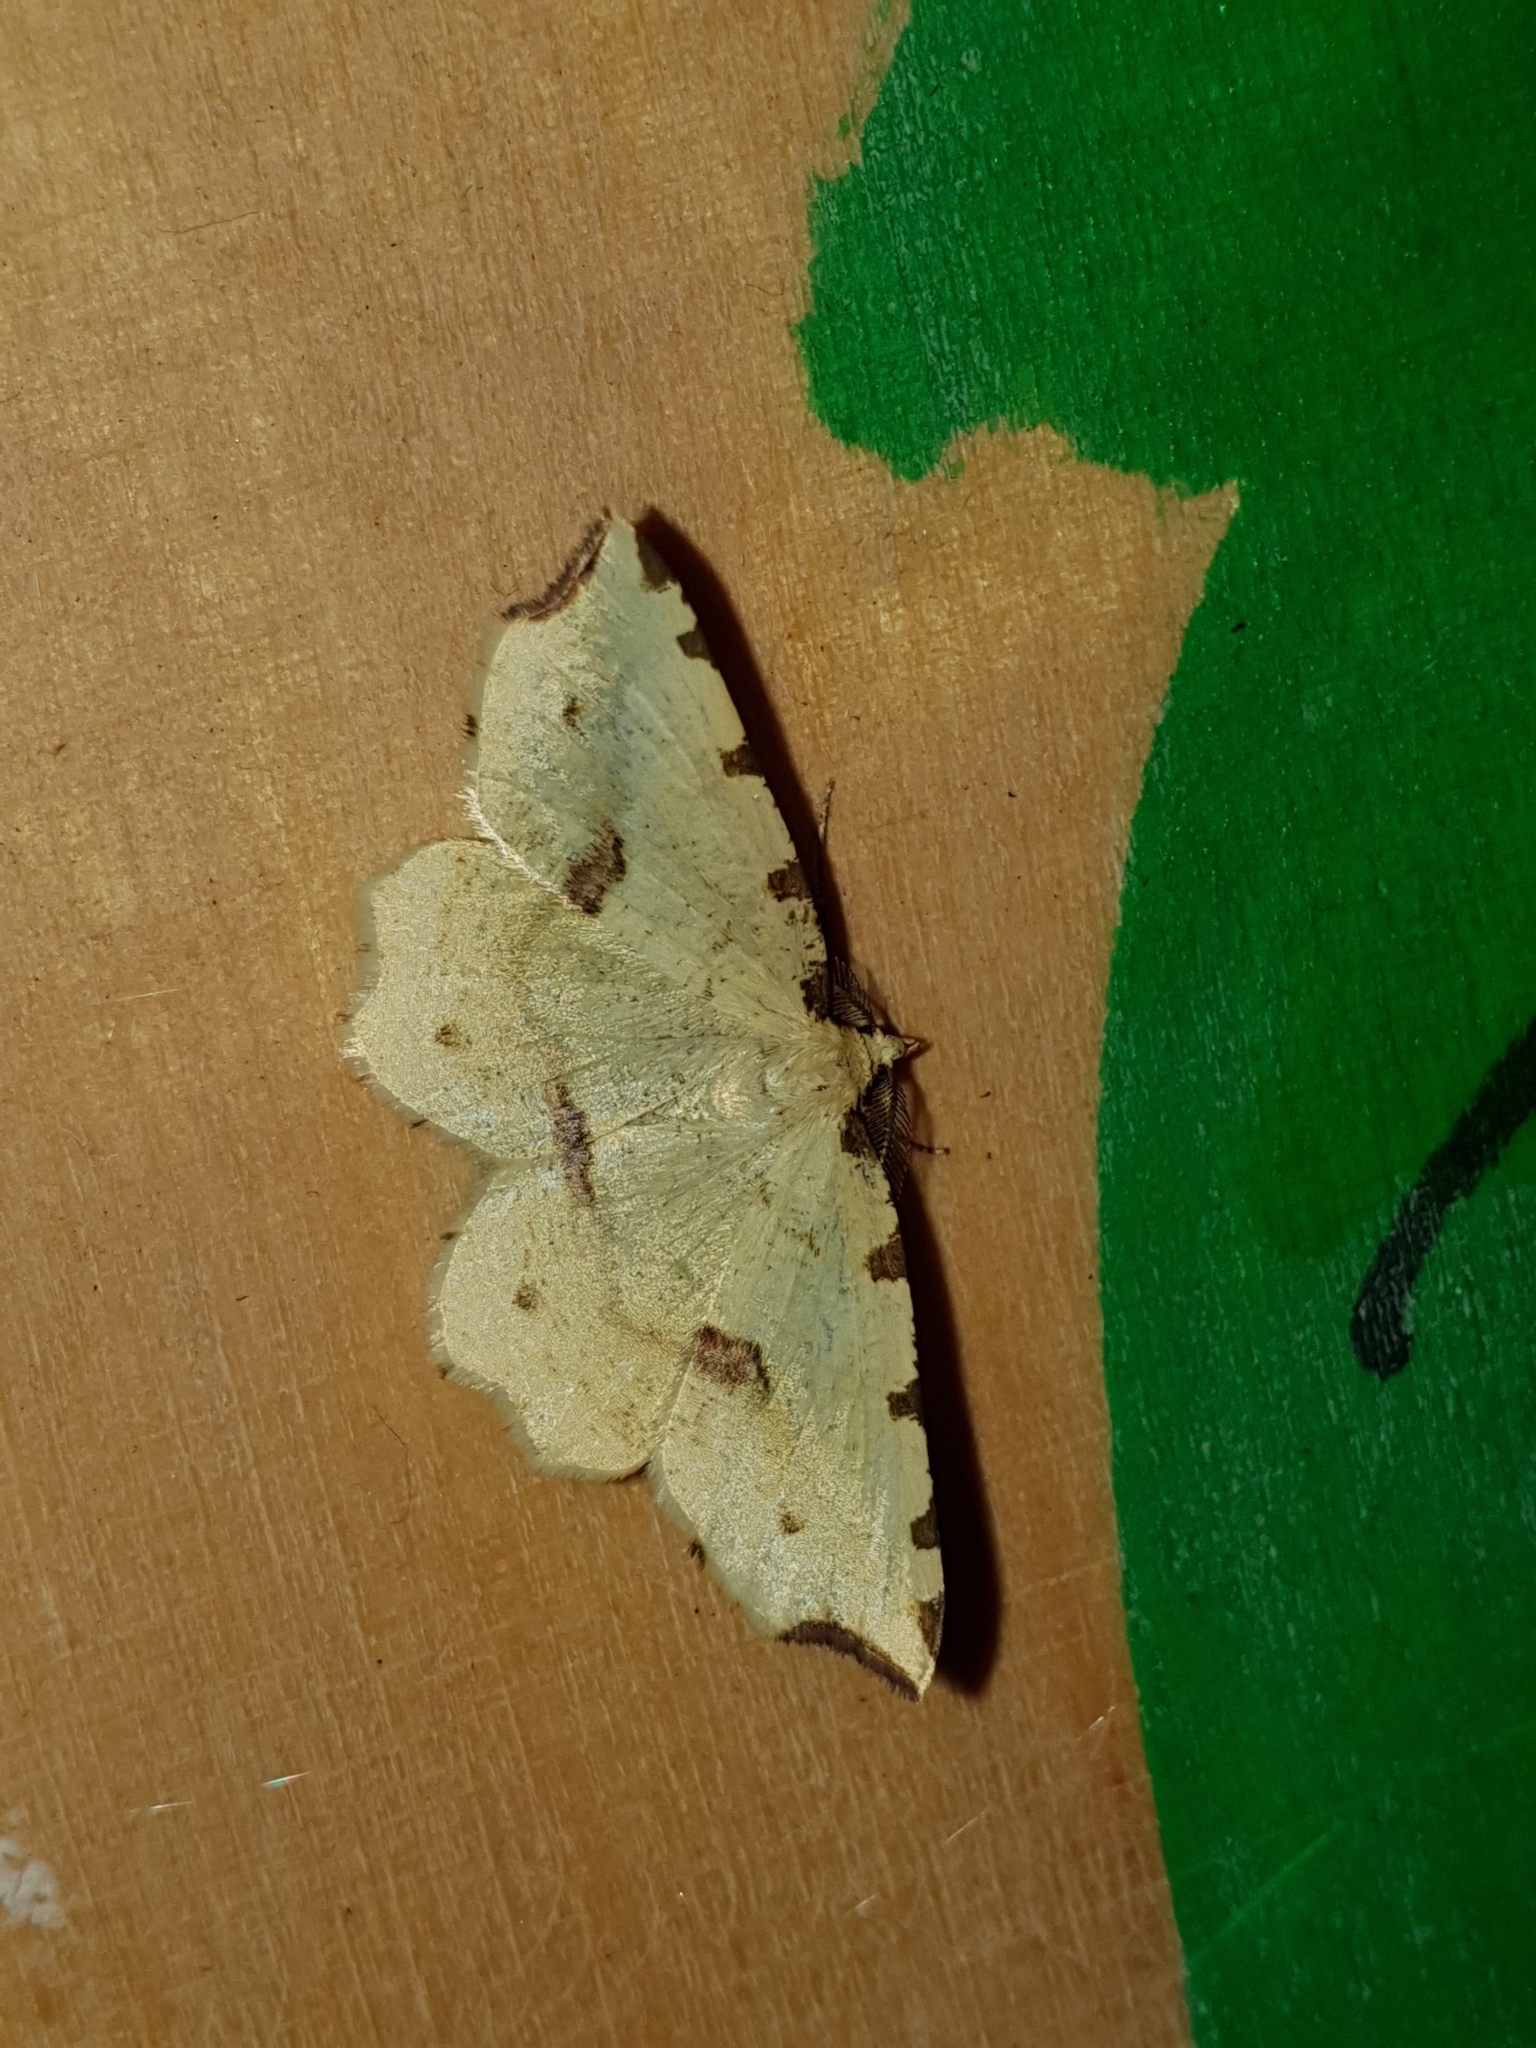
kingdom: Animalia
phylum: Arthropoda
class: Insecta
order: Lepidoptera
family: Geometridae
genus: Therapis
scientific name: Therapis flavicaria
